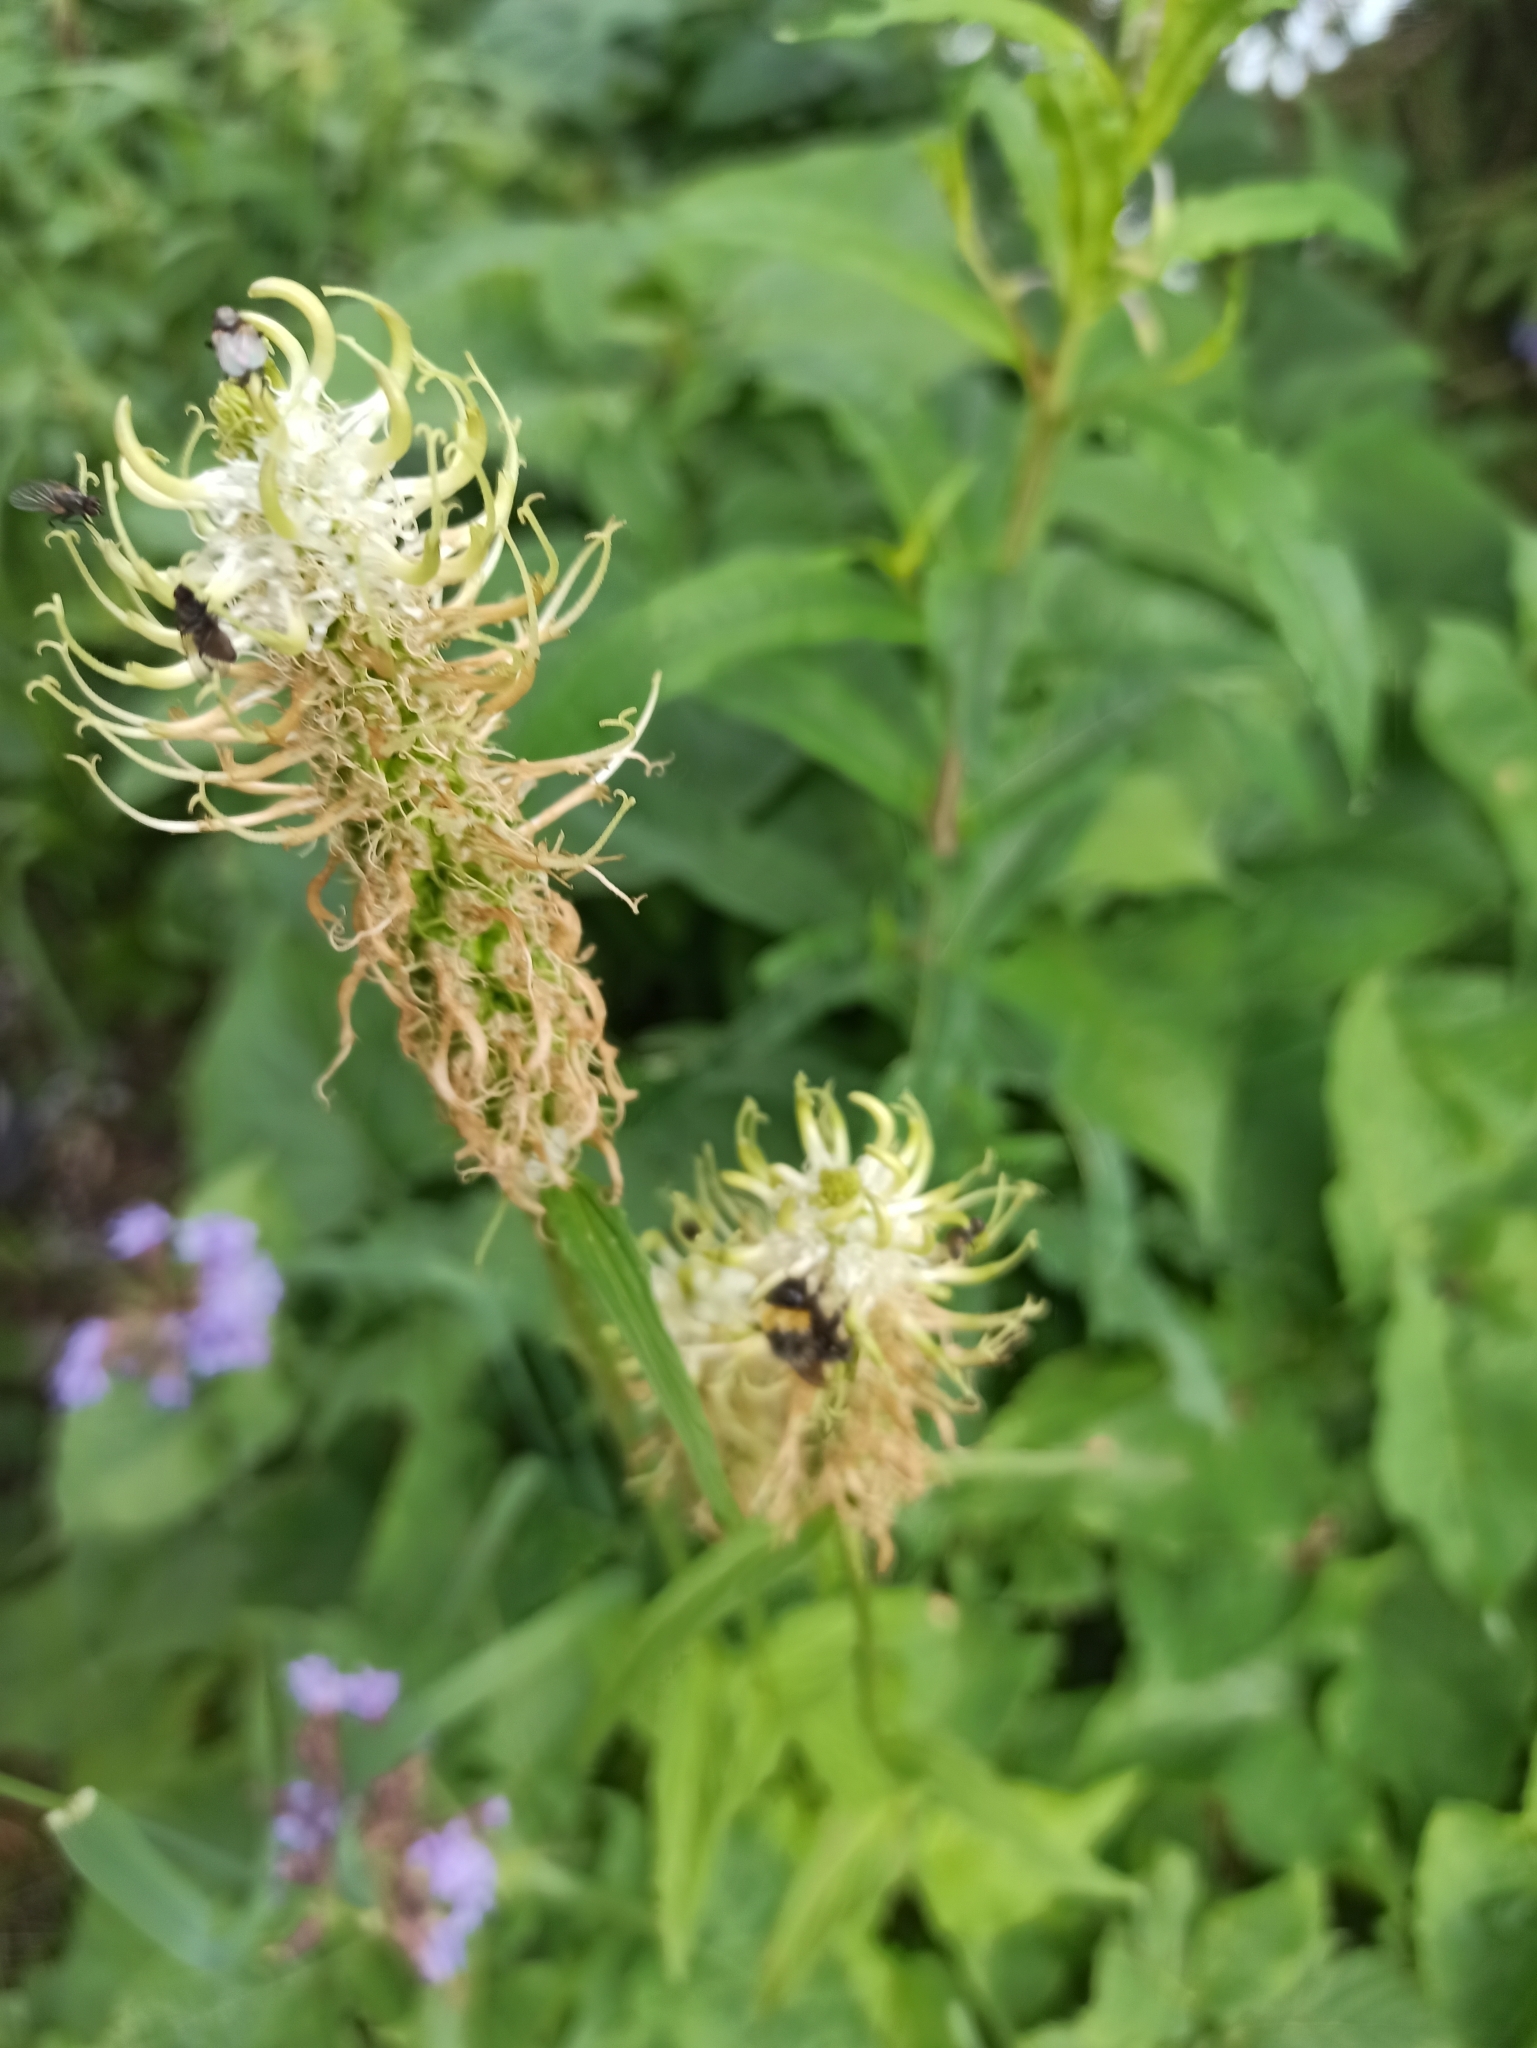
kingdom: Plantae
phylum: Tracheophyta
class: Magnoliopsida
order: Asterales
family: Campanulaceae
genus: Phyteuma
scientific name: Phyteuma spicatum
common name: Spiked rampion
